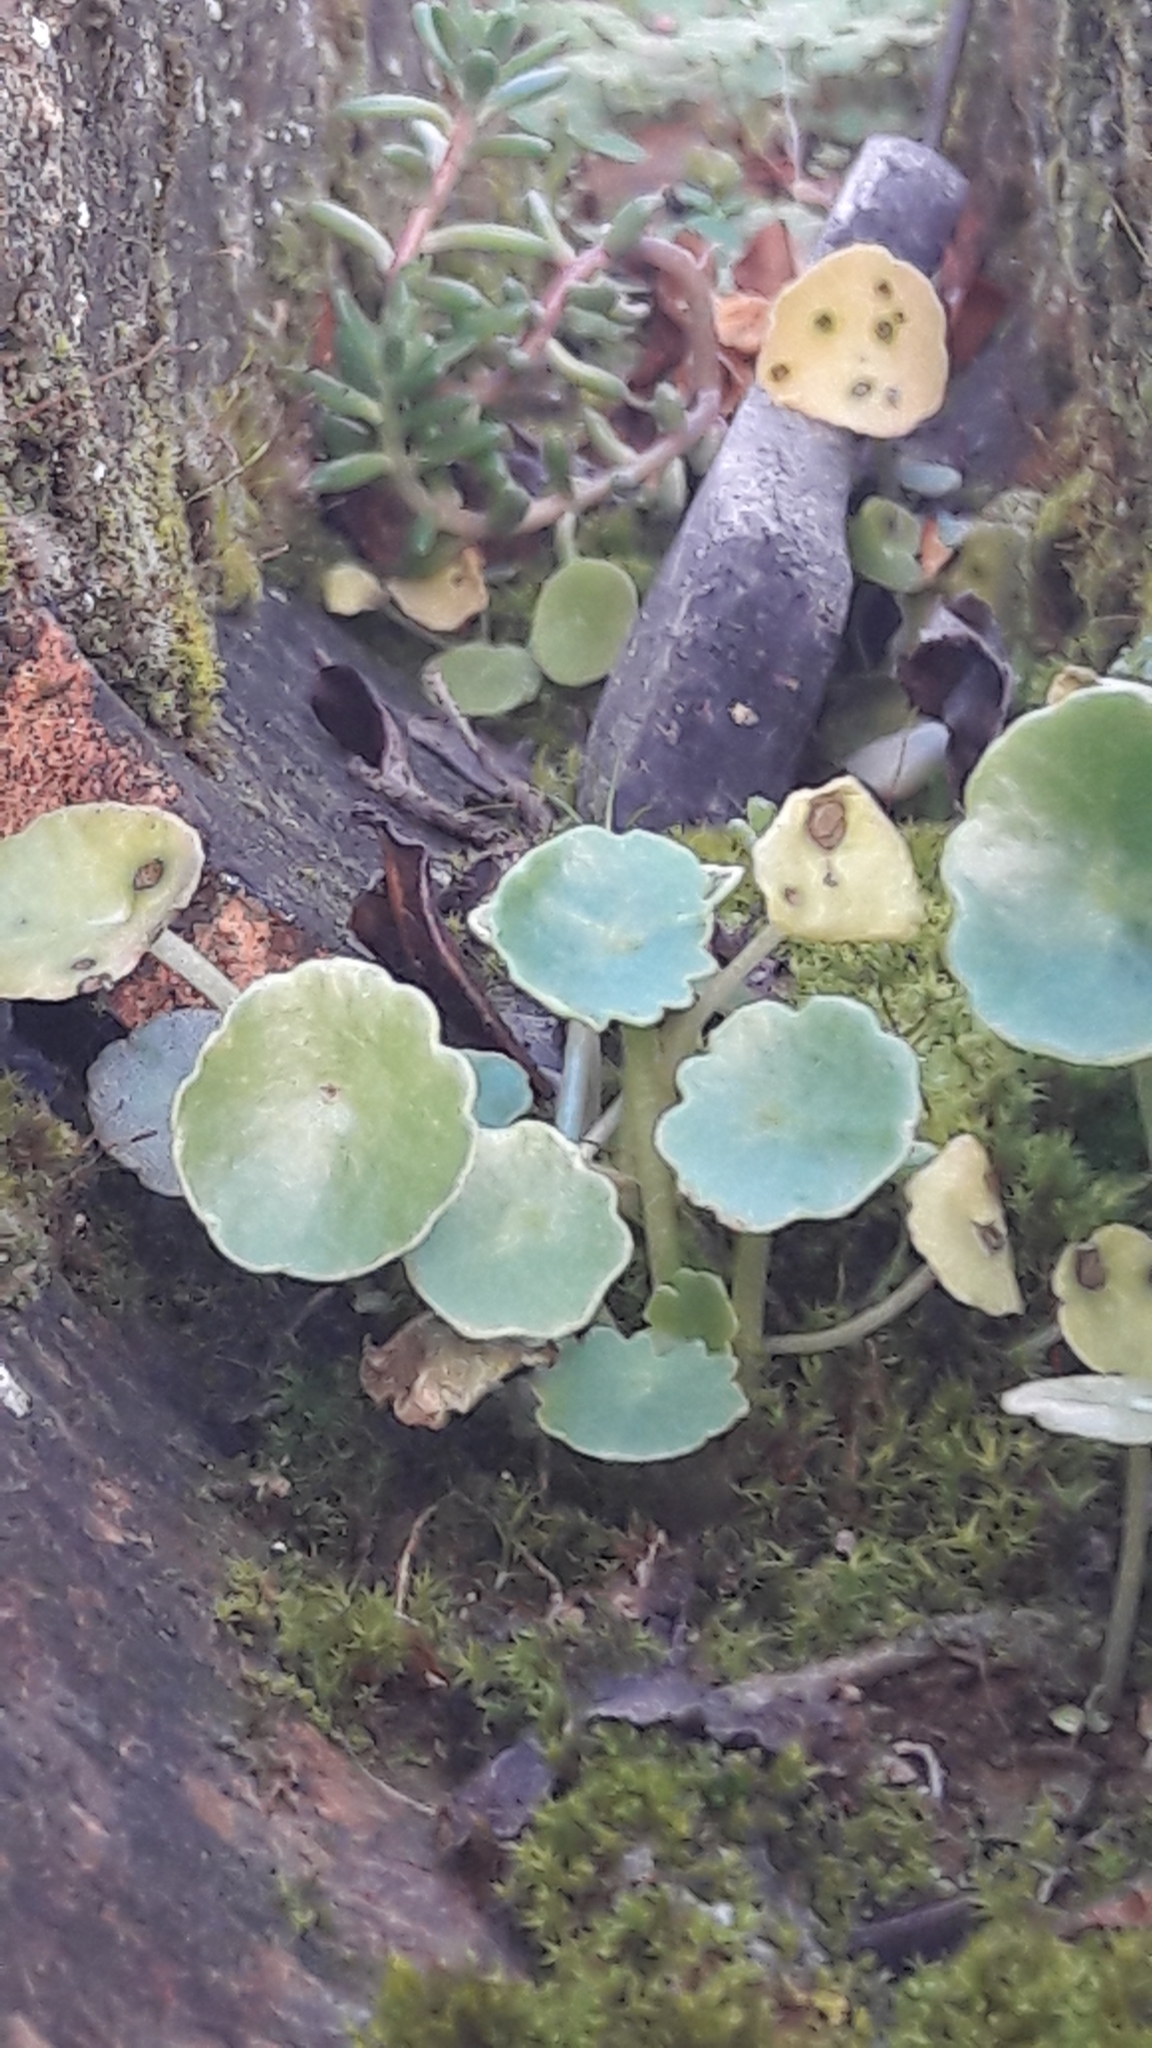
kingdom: Plantae
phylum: Tracheophyta
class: Magnoliopsida
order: Saxifragales
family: Crassulaceae
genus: Umbilicus
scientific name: Umbilicus rupestris
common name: Navelwort
